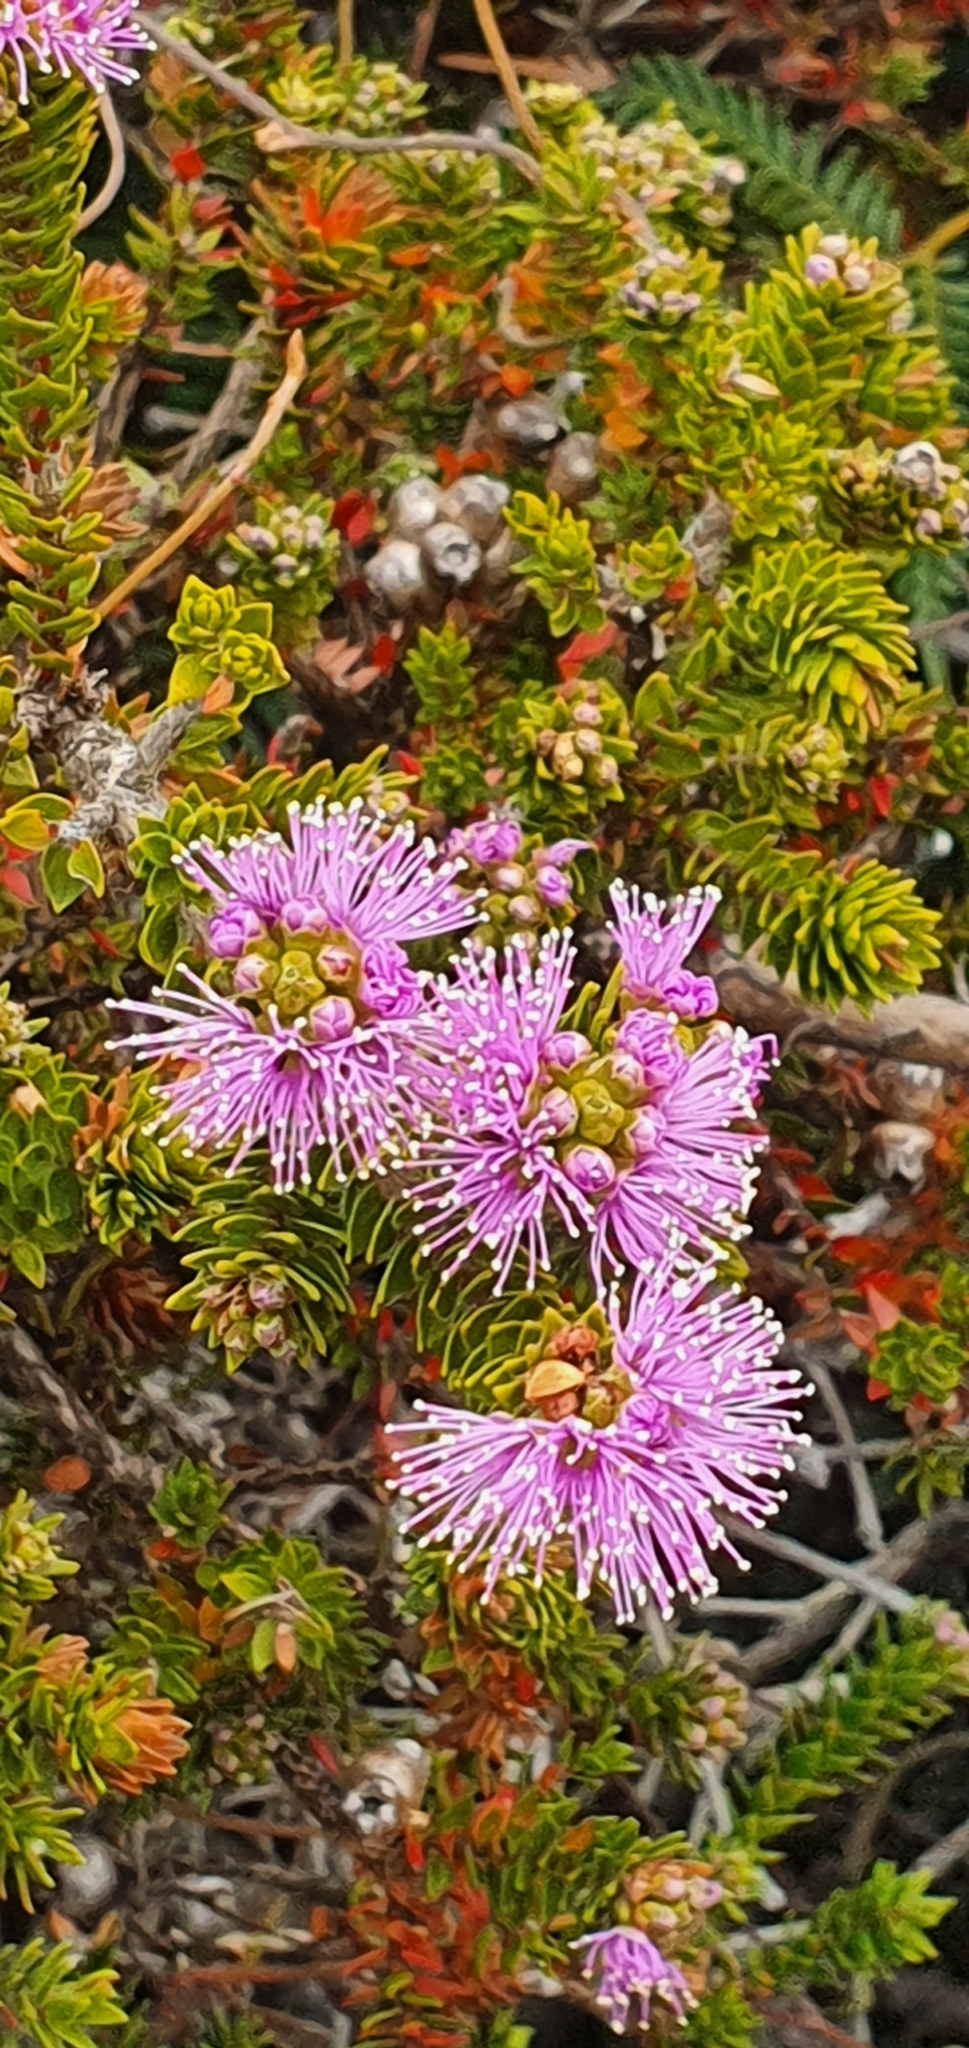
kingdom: Plantae
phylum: Tracheophyta
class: Magnoliopsida
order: Myrtales
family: Myrtaceae
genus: Melaleuca
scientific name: Melaleuca squamea
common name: Swamp melaleuca
